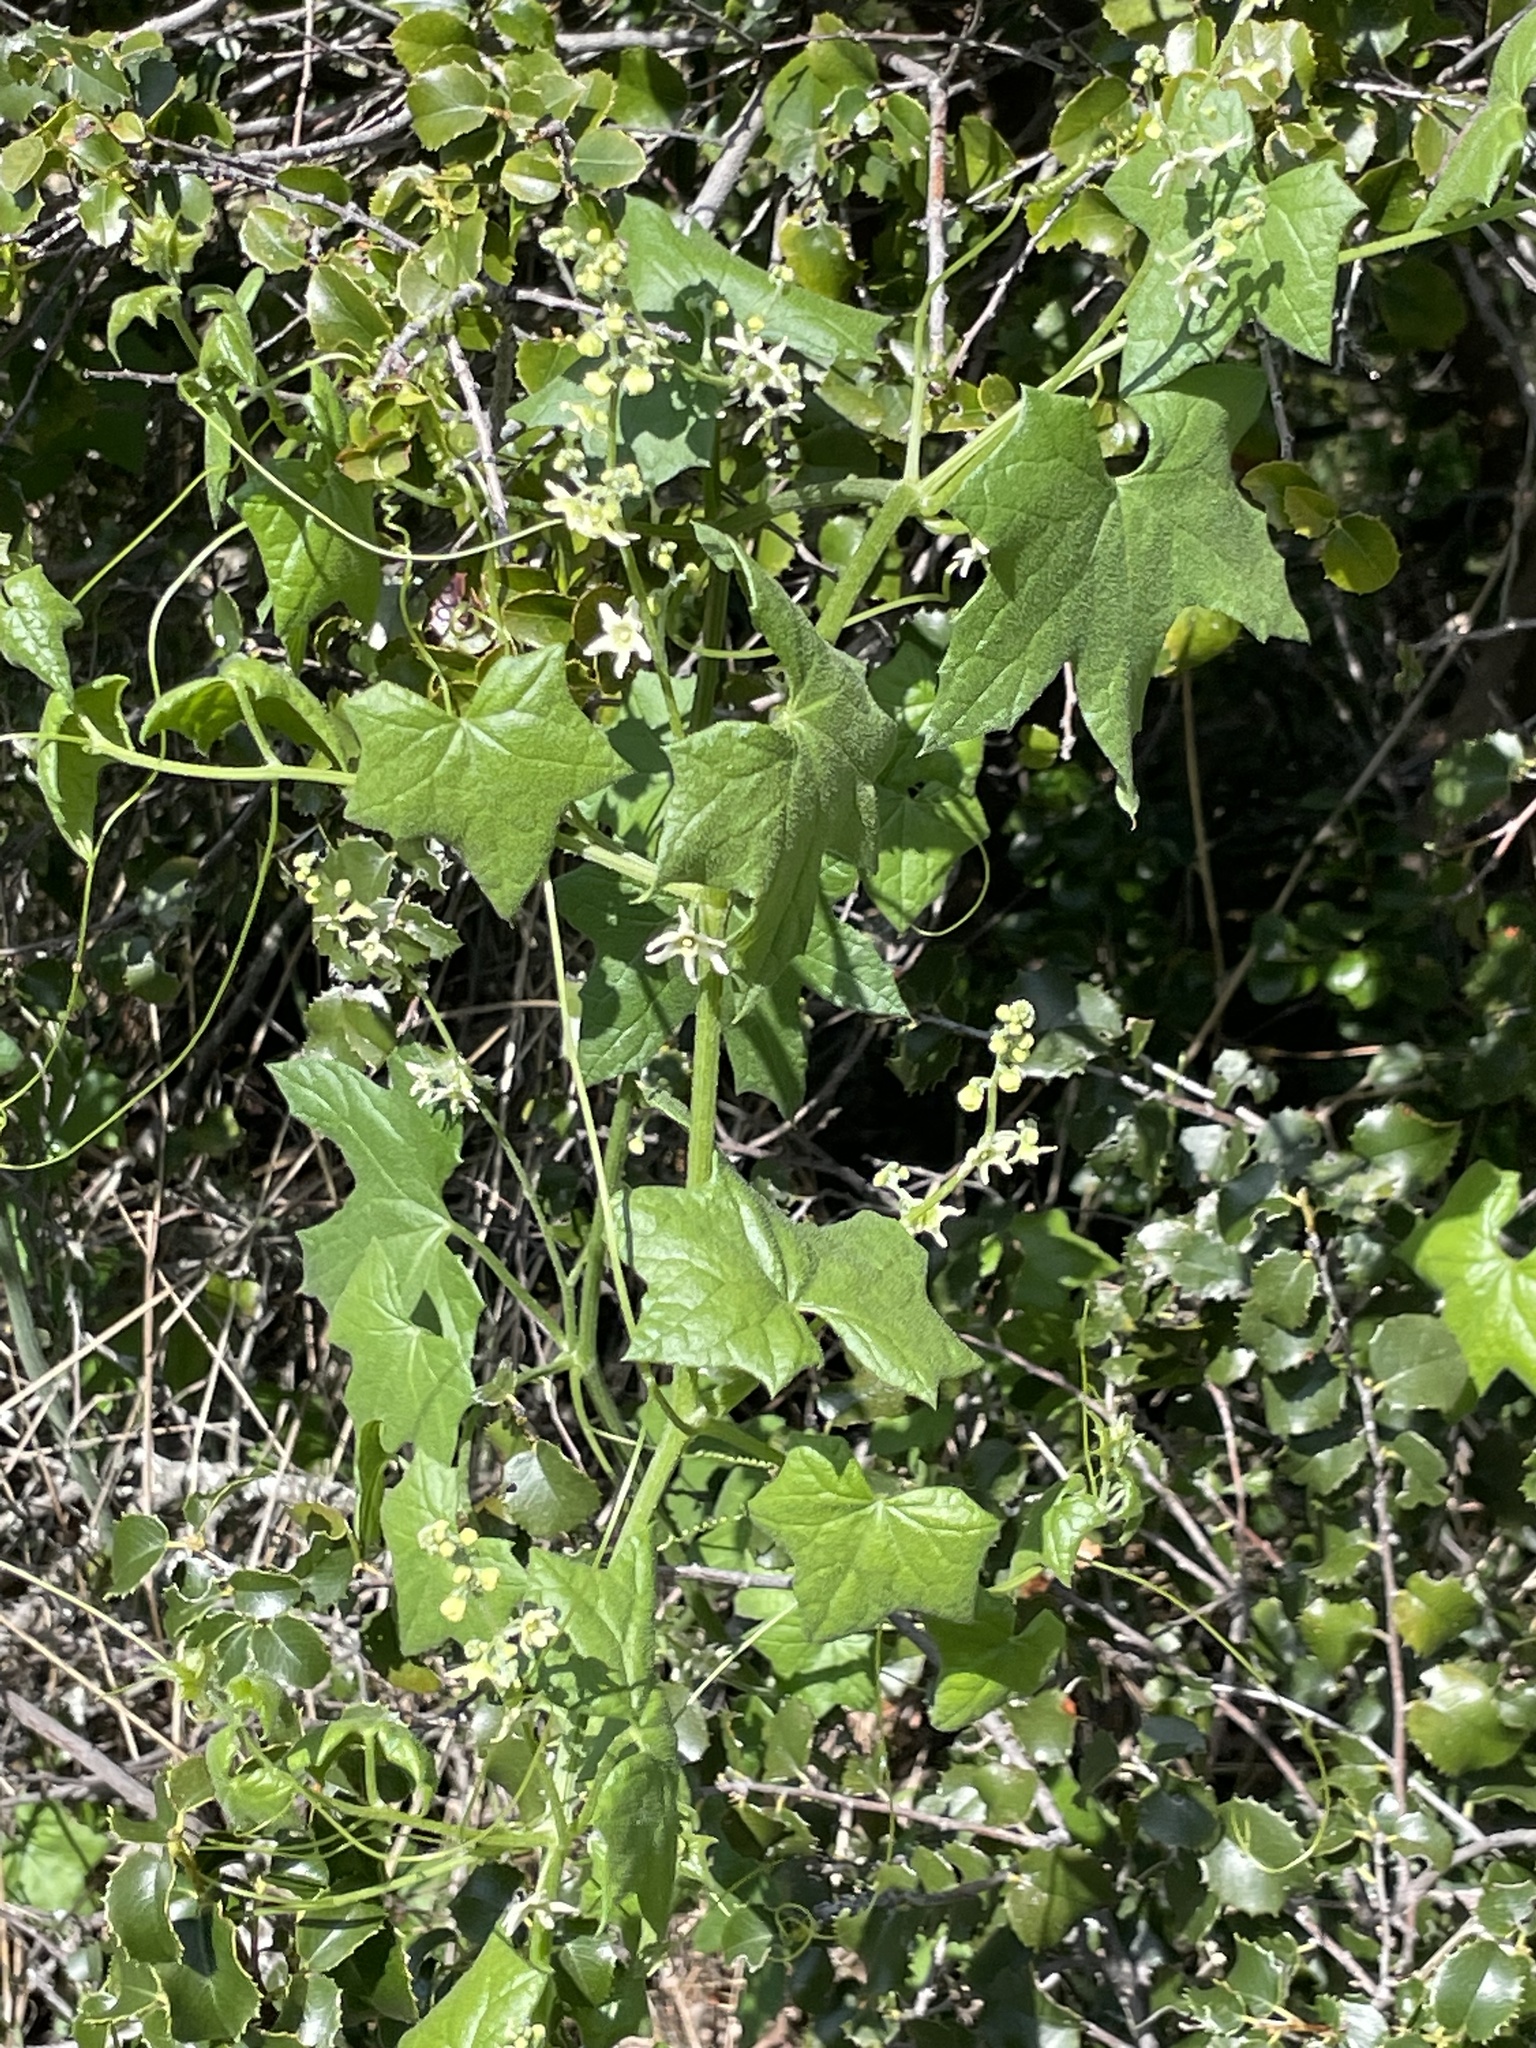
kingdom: Plantae
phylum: Tracheophyta
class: Magnoliopsida
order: Cucurbitales
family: Cucurbitaceae
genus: Marah
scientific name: Marah fabacea
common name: California manroot
